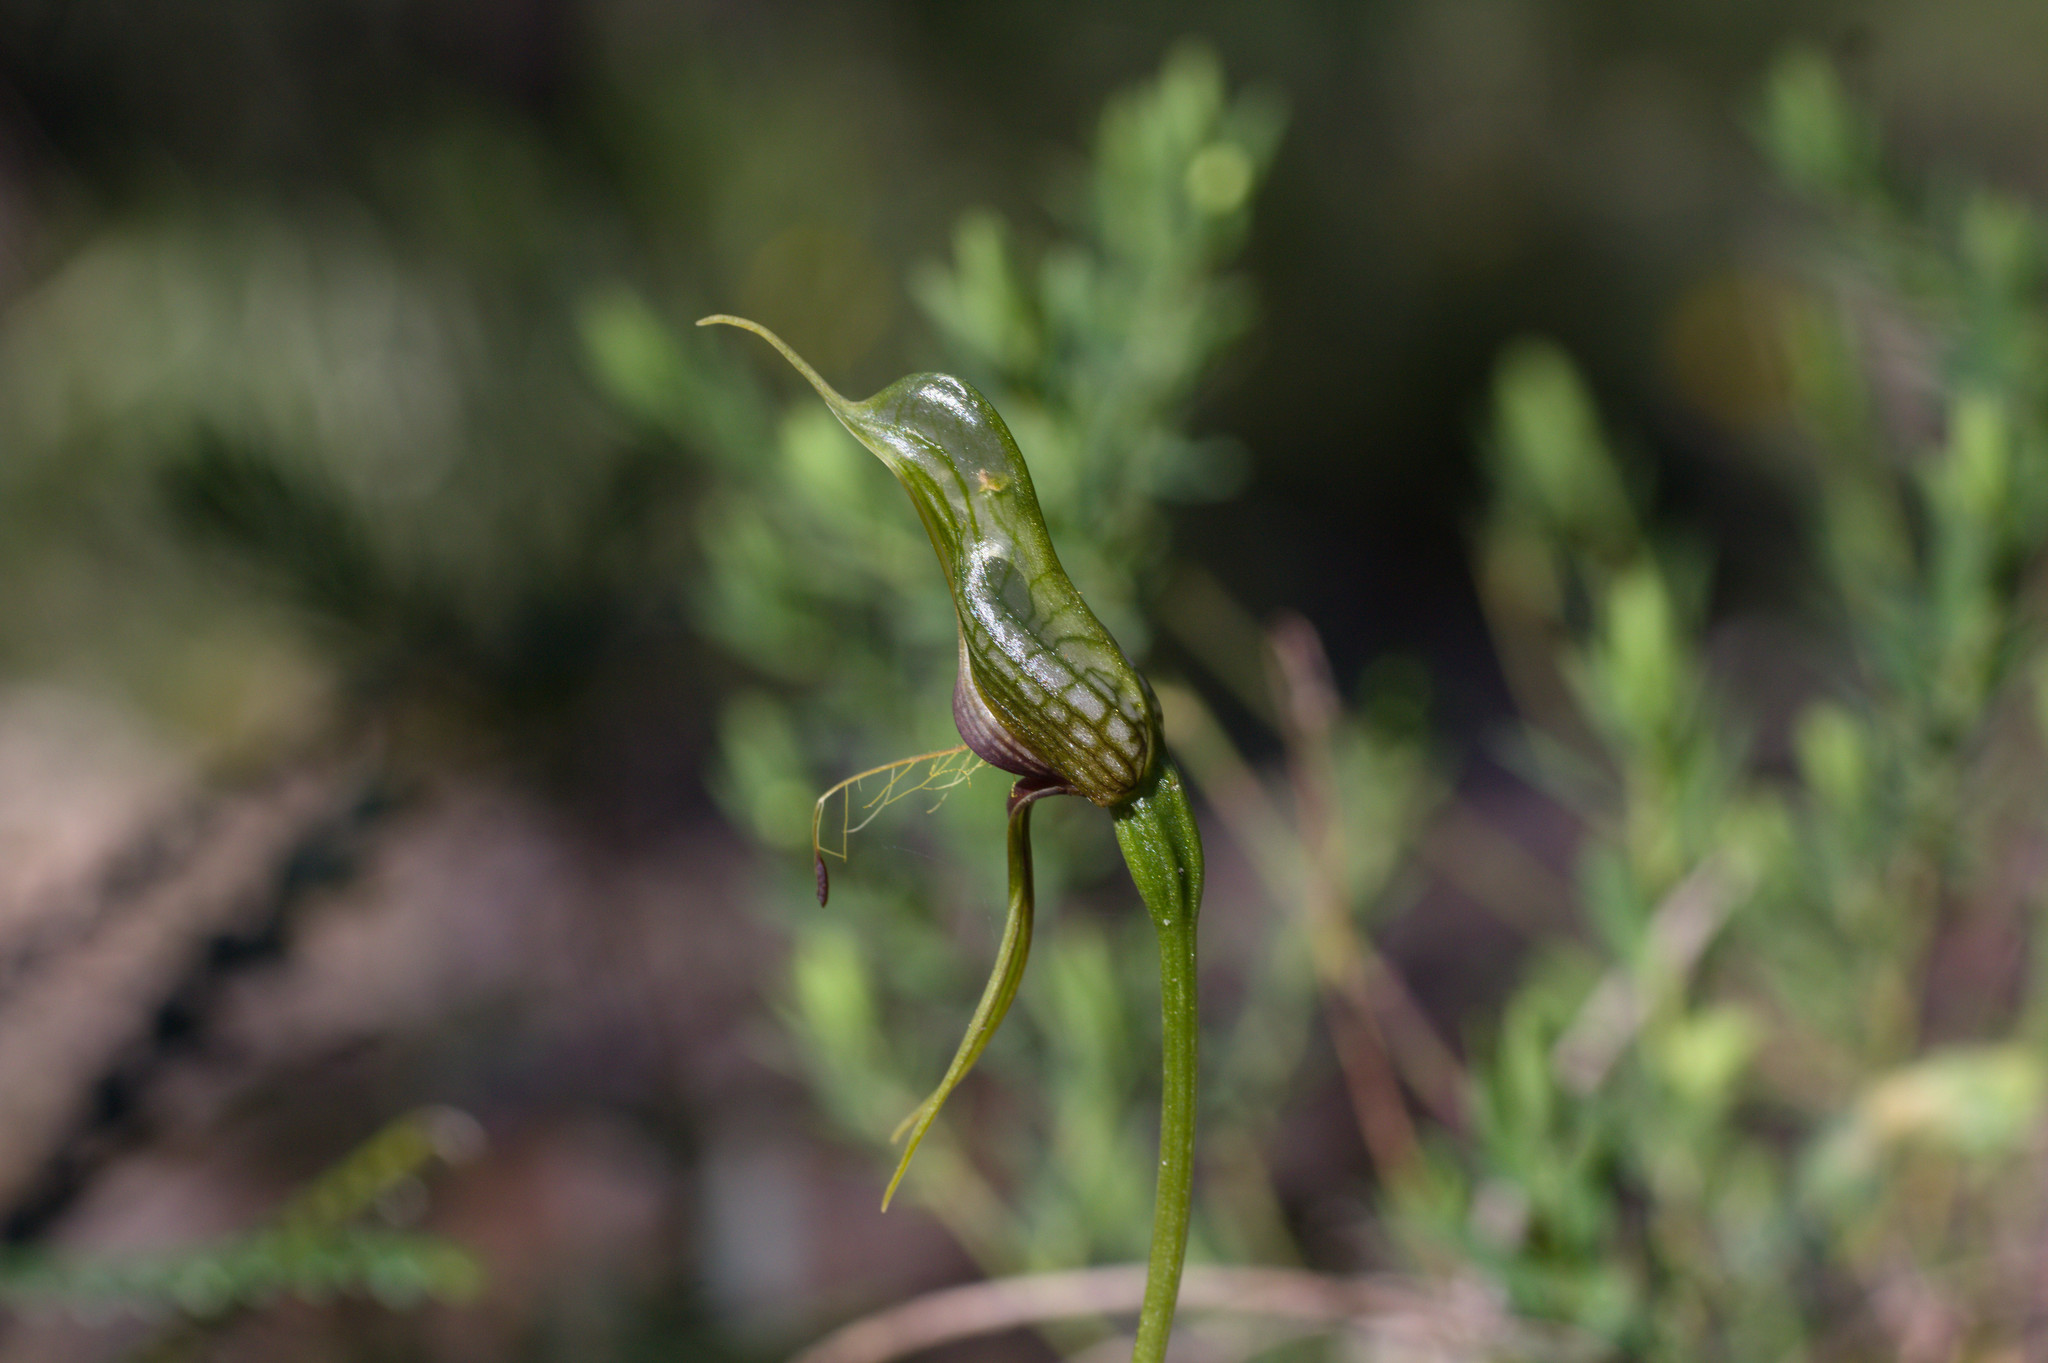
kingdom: Plantae
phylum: Tracheophyta
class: Liliopsida
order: Asparagales
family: Orchidaceae
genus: Pterostylis
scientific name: Pterostylis barbata
